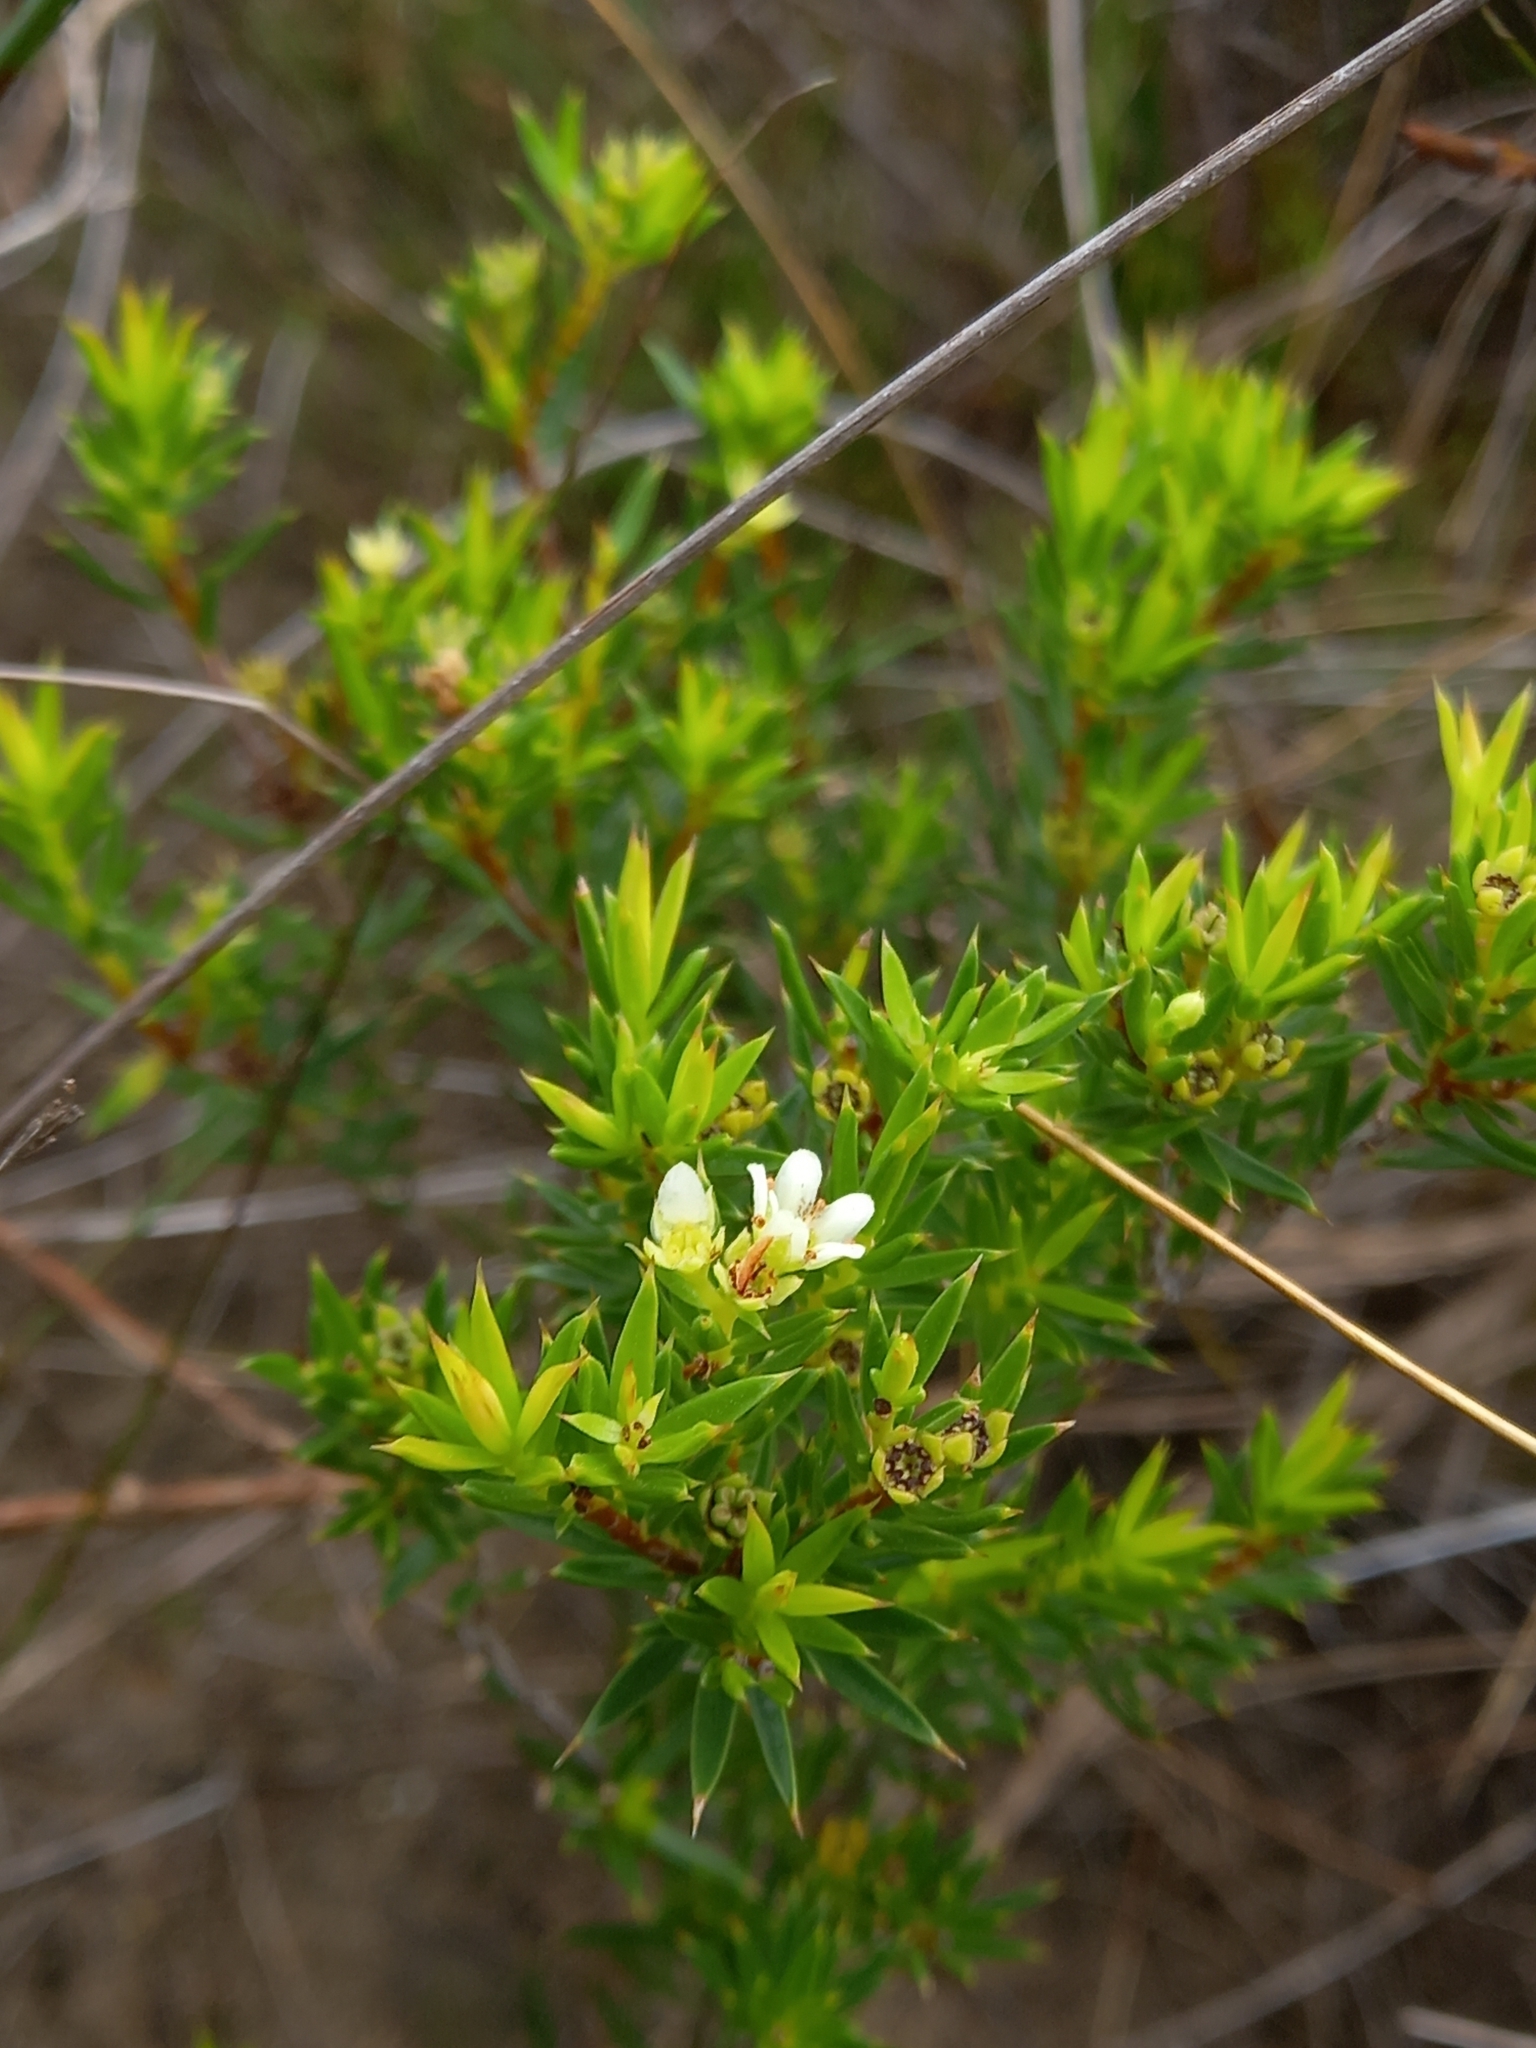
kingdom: Plantae
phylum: Tracheophyta
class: Magnoliopsida
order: Sapindales
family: Rutaceae
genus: Diosma
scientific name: Diosma aristata
